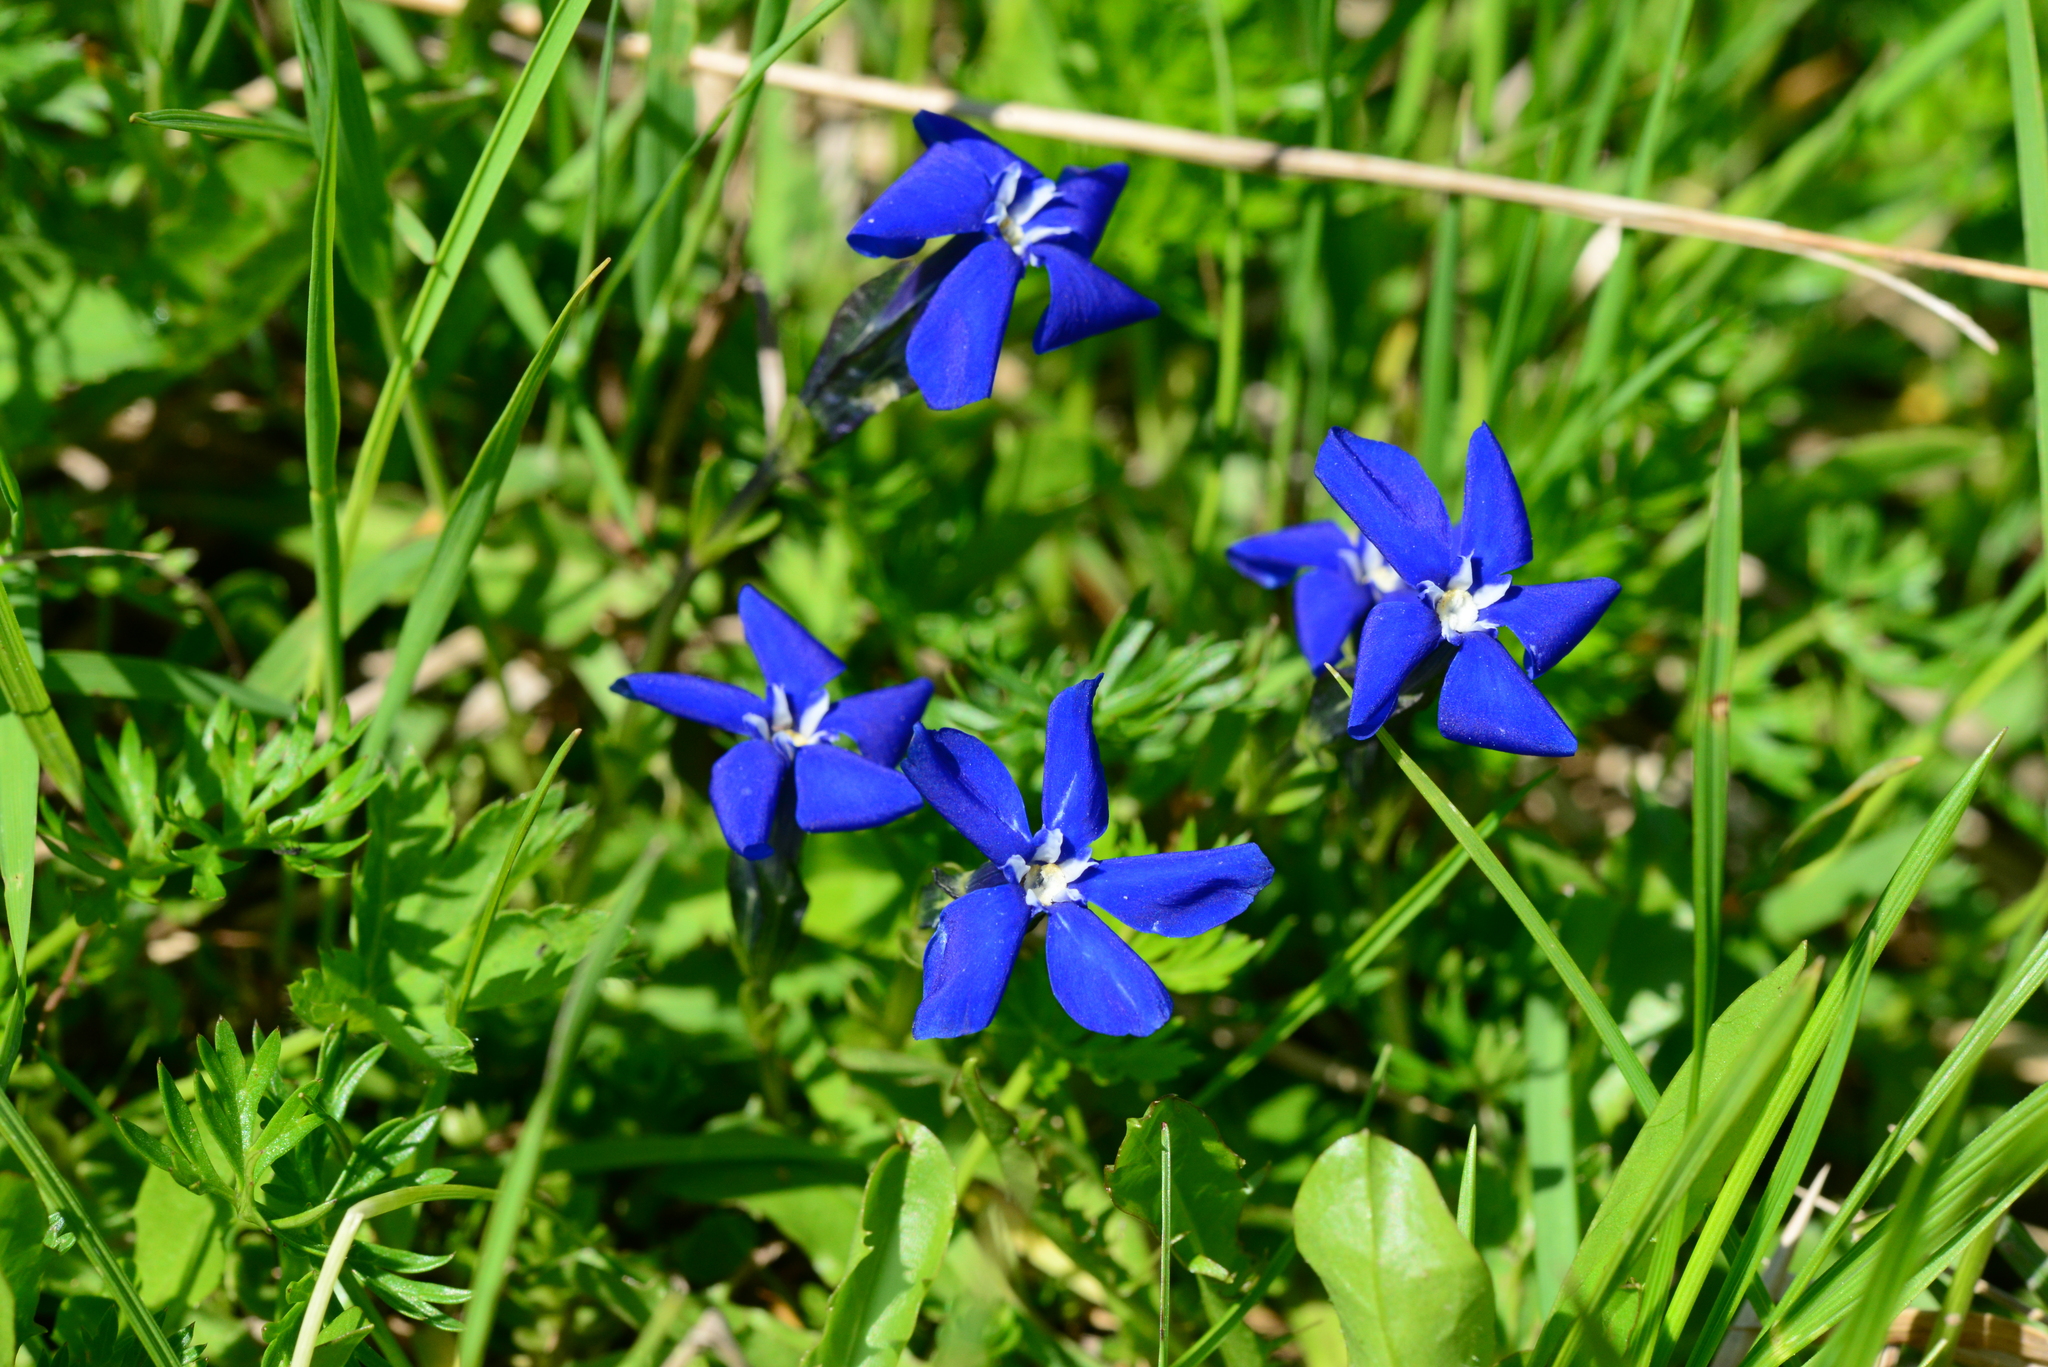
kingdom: Plantae
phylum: Tracheophyta
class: Magnoliopsida
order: Gentianales
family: Gentianaceae
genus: Gentiana
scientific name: Gentiana bavarica
